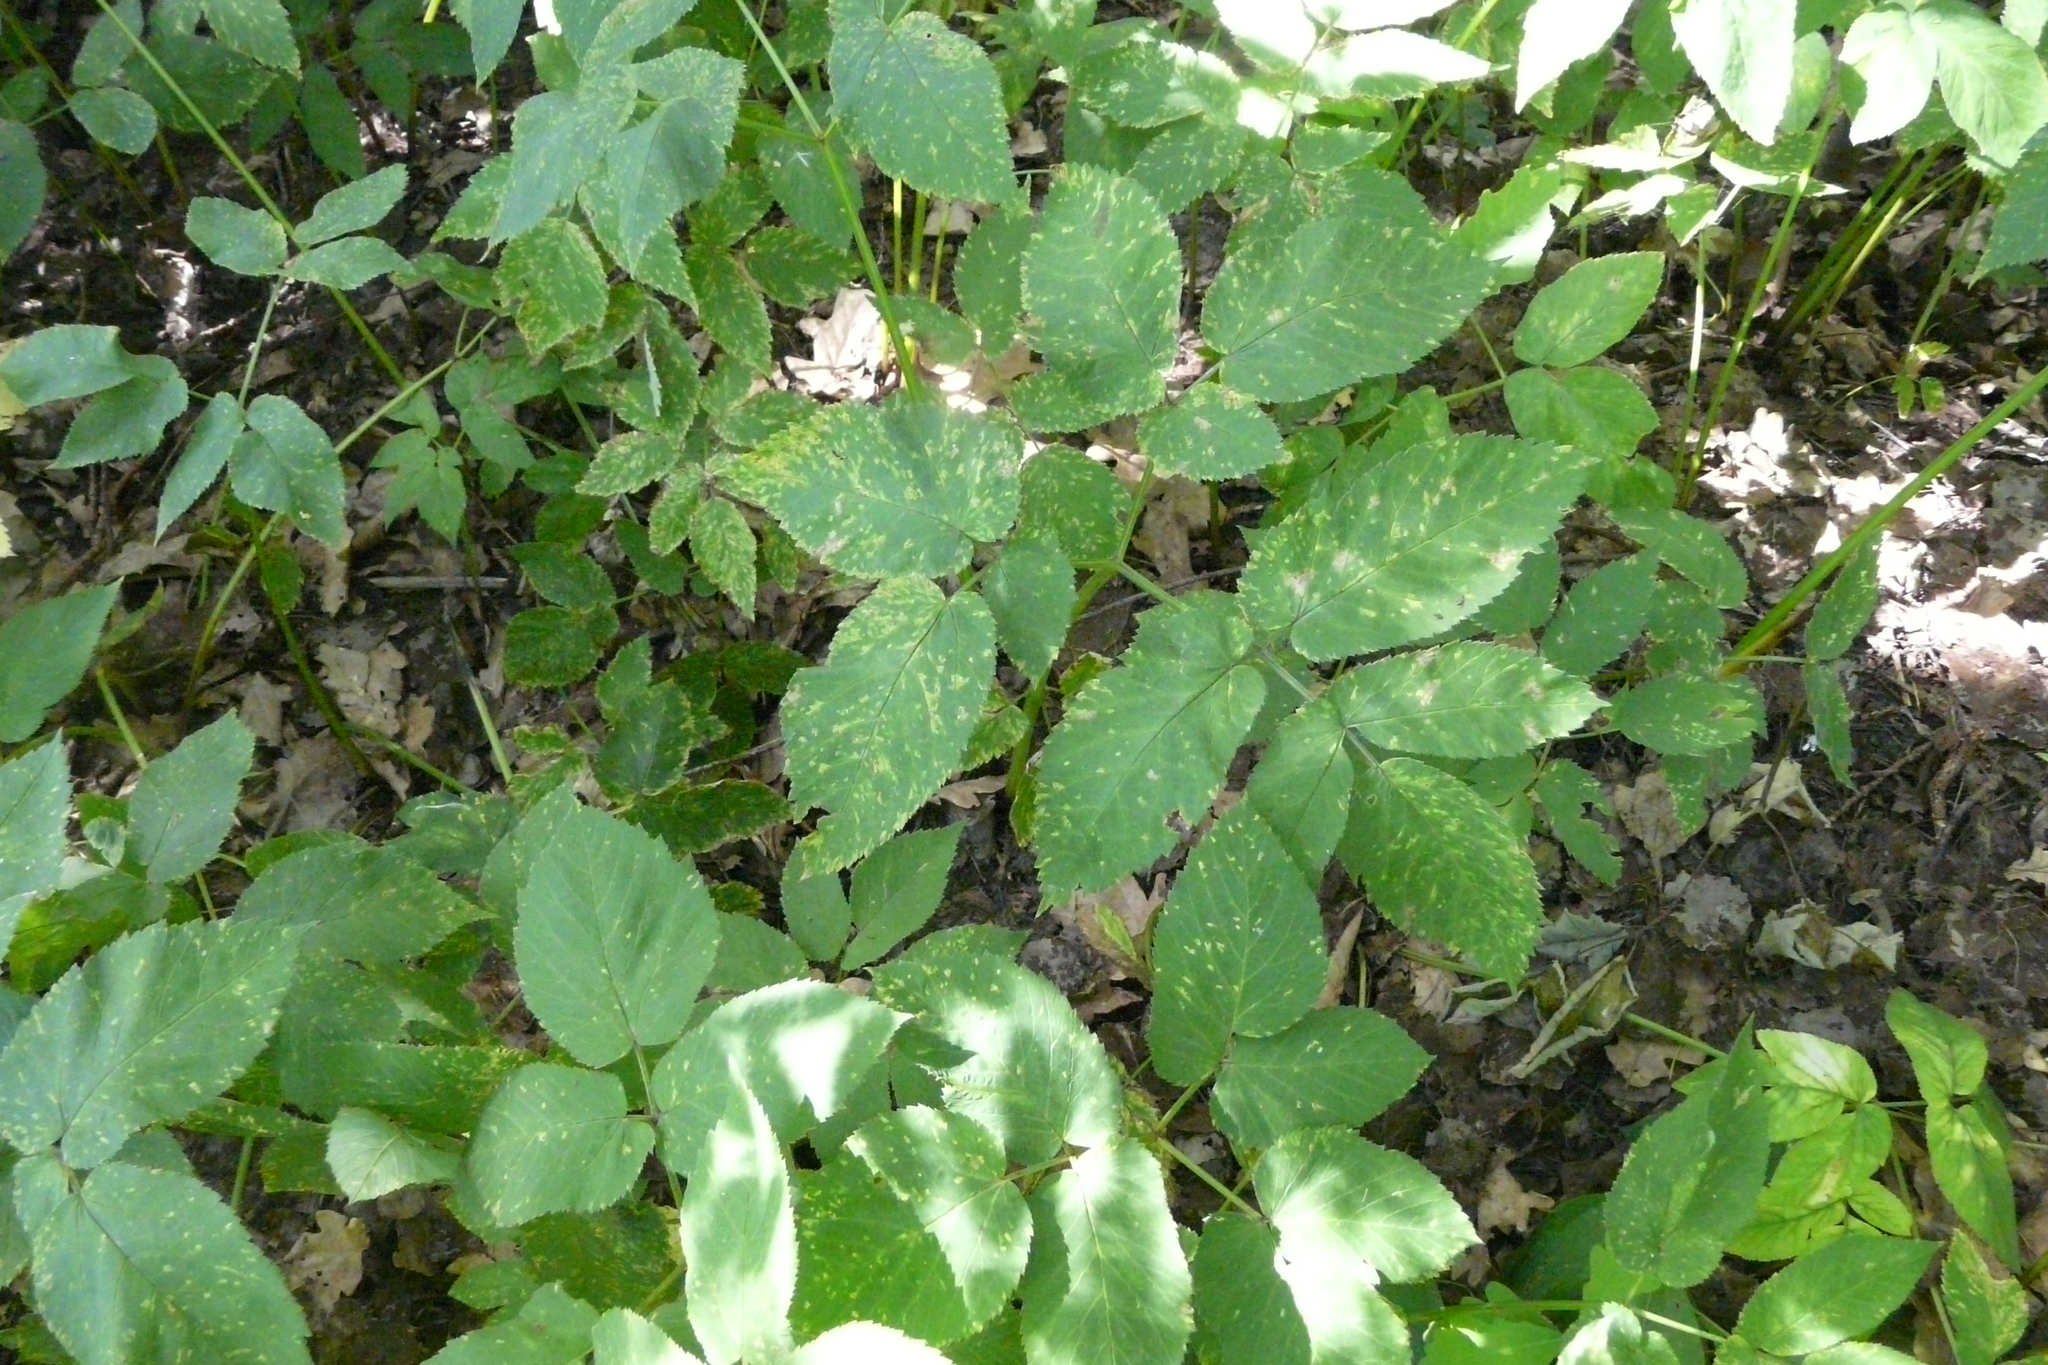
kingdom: Plantae
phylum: Tracheophyta
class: Magnoliopsida
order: Apiales
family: Apiaceae
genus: Aegopodium
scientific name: Aegopodium podagraria
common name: Ground-elder
